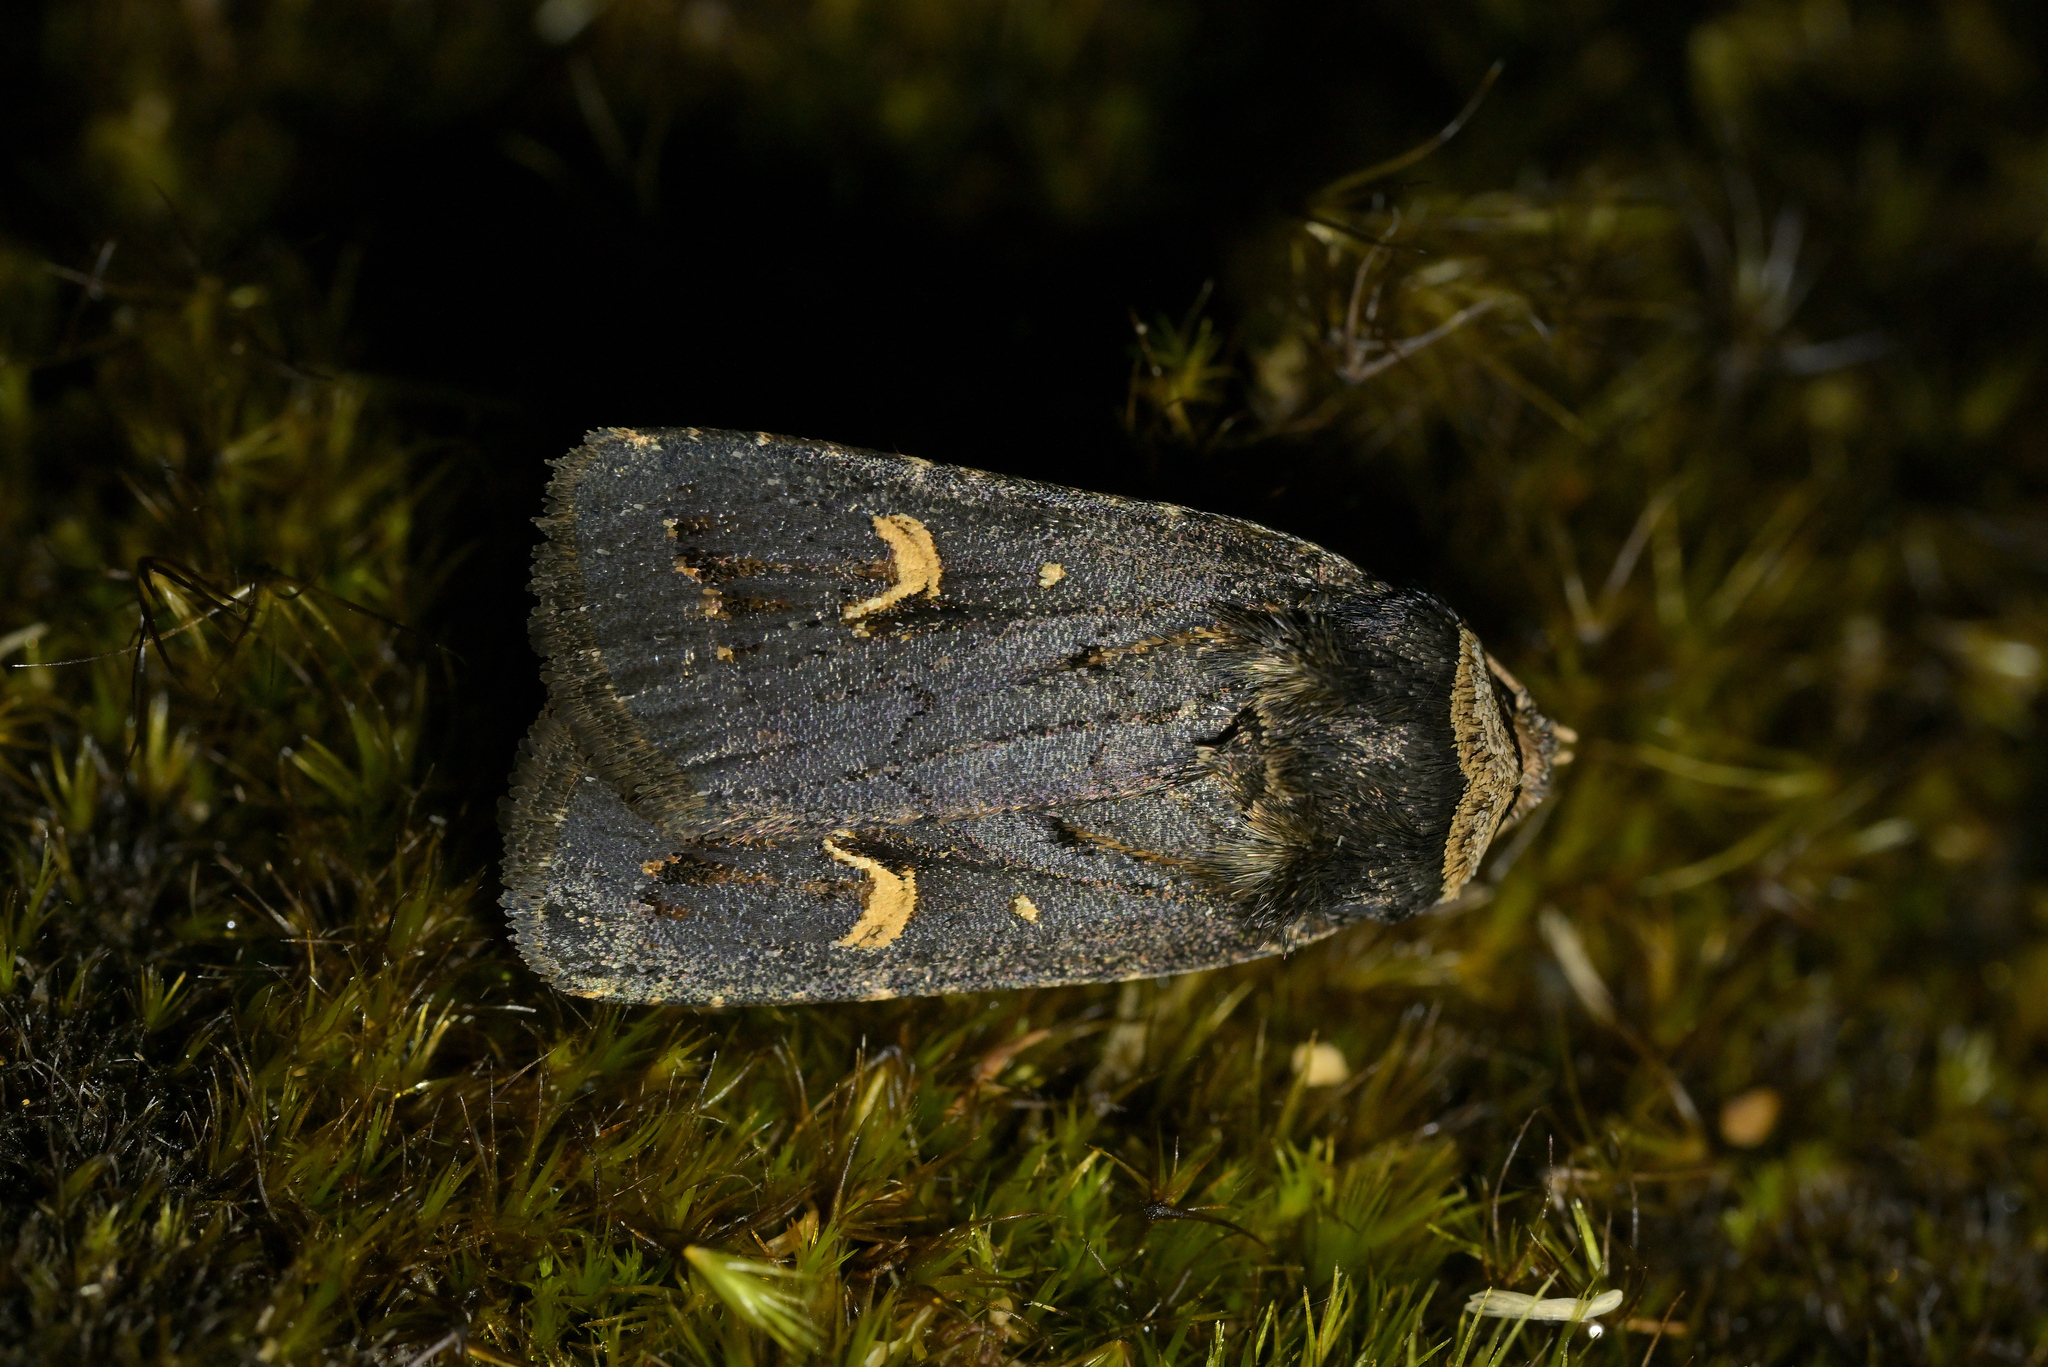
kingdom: Animalia
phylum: Arthropoda
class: Insecta
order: Lepidoptera
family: Noctuidae
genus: Proteuxoa
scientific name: Proteuxoa tetronycha
